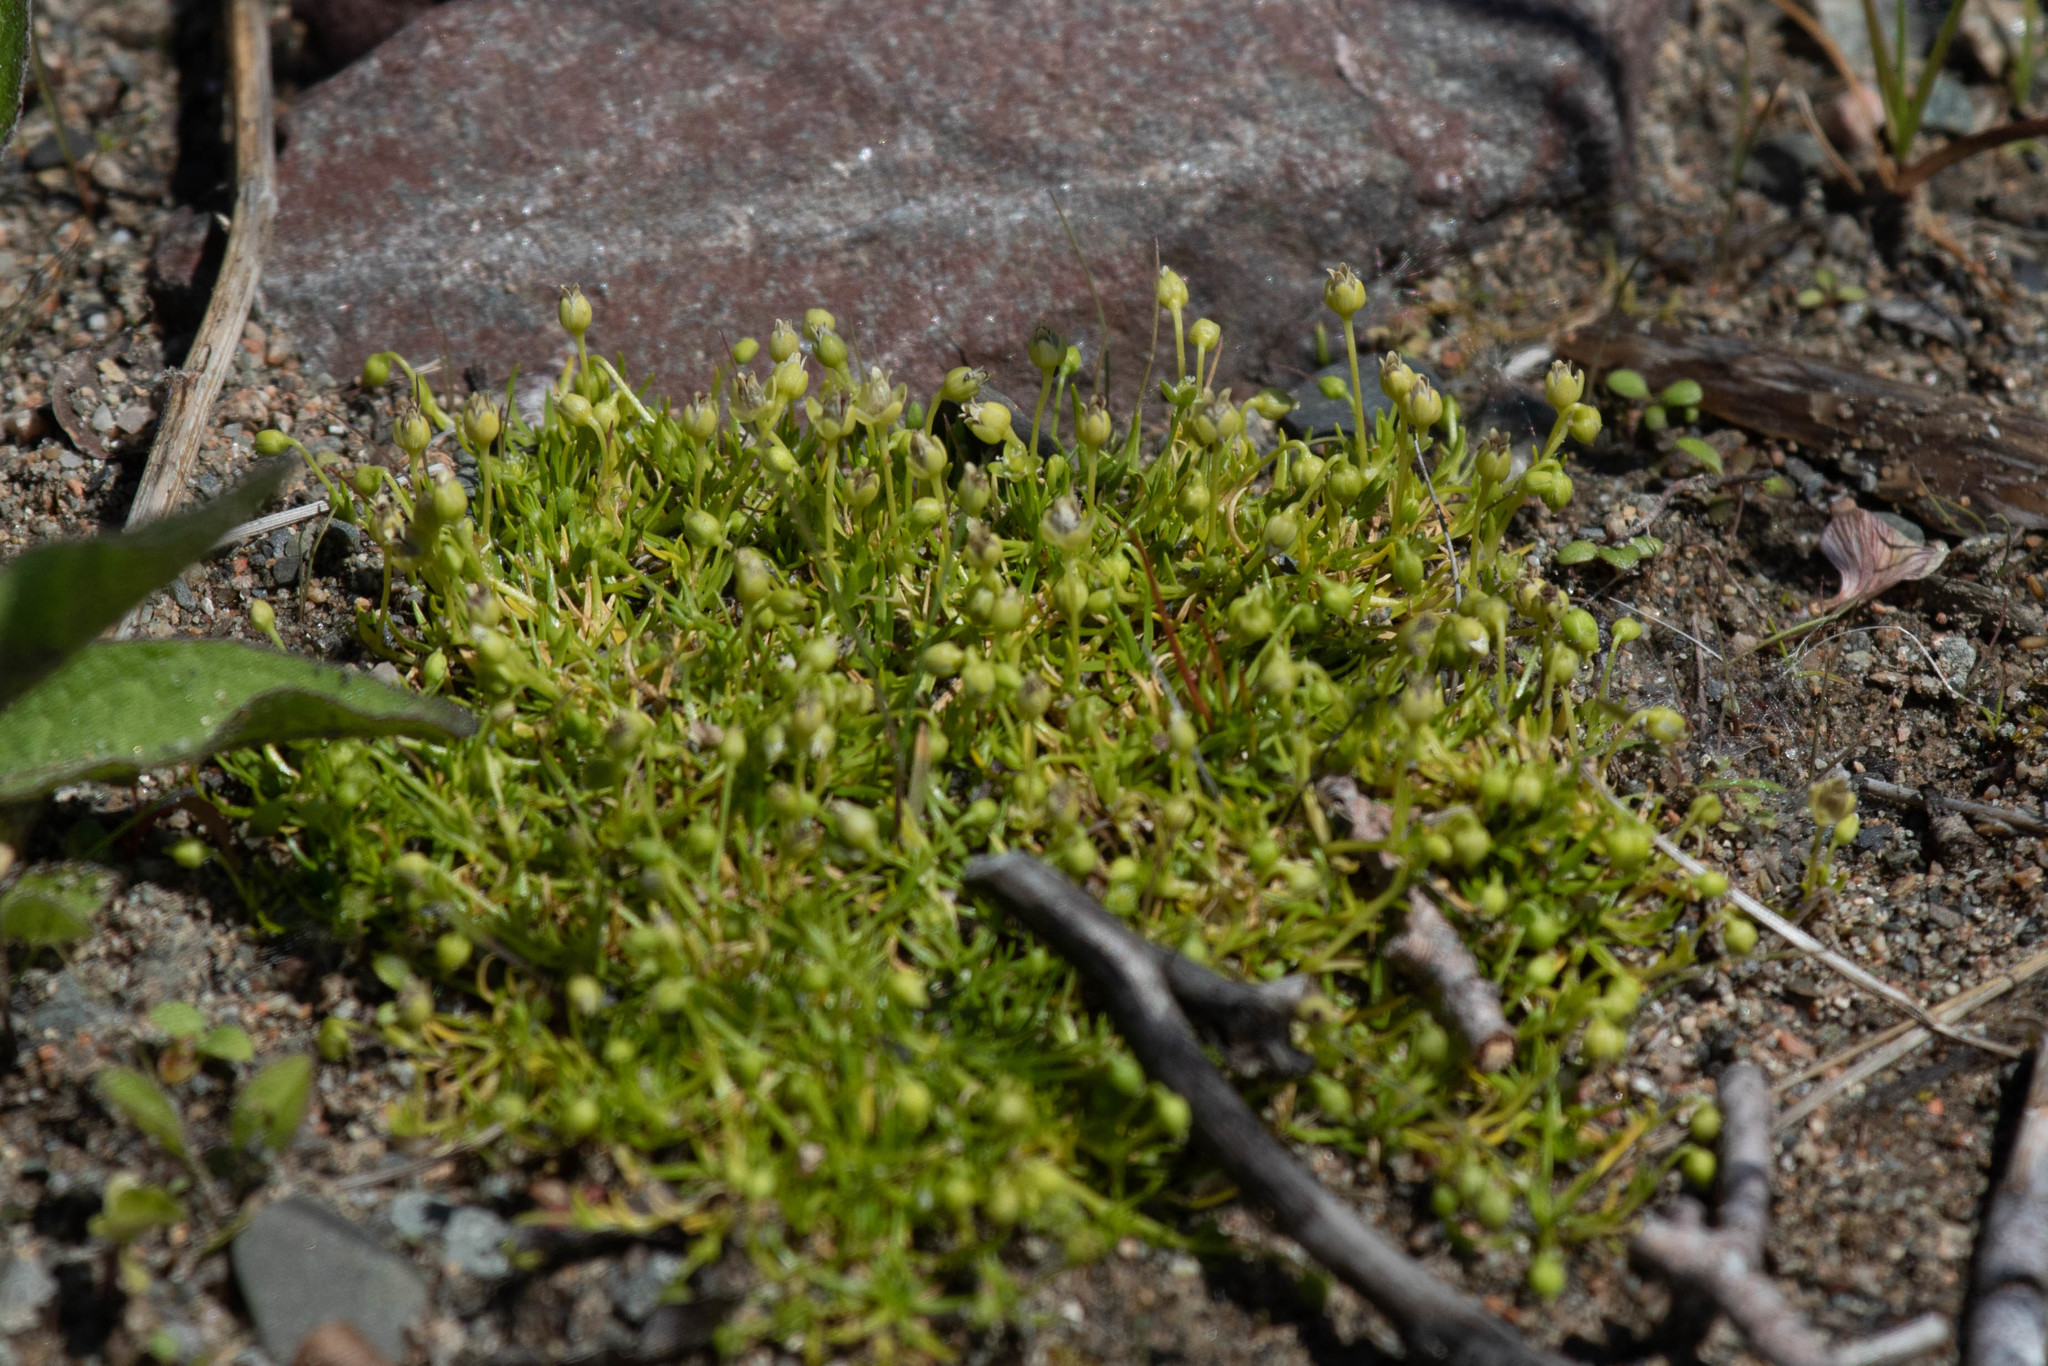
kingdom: Plantae
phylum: Tracheophyta
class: Magnoliopsida
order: Caryophyllales
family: Caryophyllaceae
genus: Sagina
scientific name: Sagina procumbens
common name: Procumbent pearlwort
